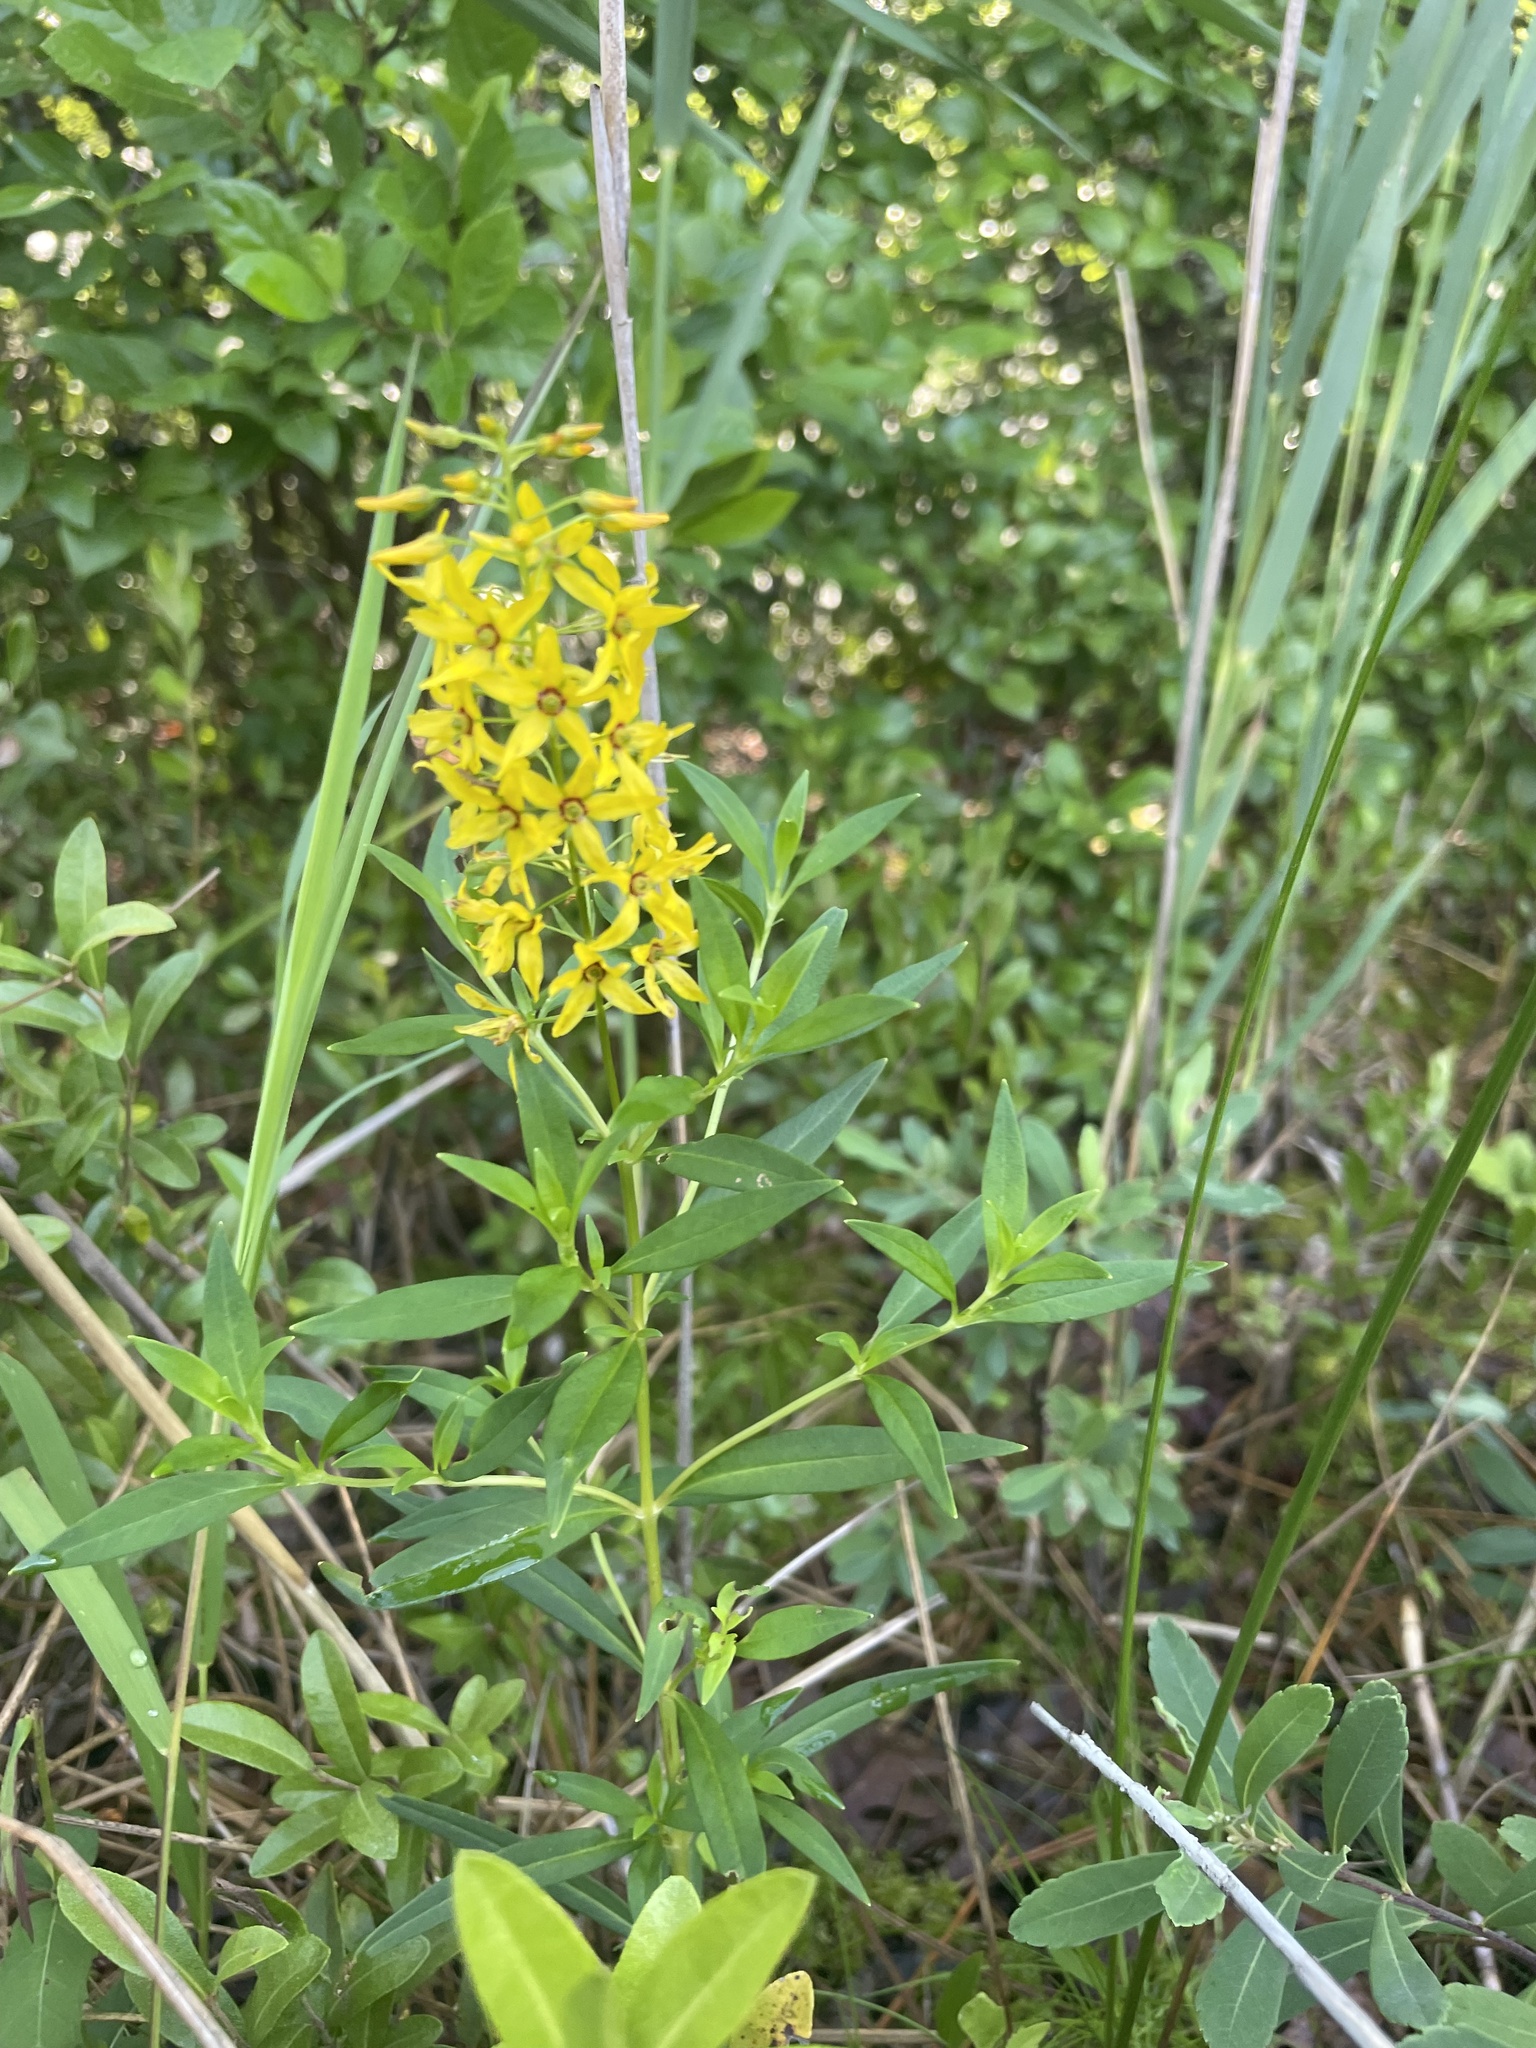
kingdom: Plantae
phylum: Tracheophyta
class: Magnoliopsida
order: Ericales
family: Primulaceae
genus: Lysimachia
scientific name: Lysimachia terrestris
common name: Lake loosestrife
